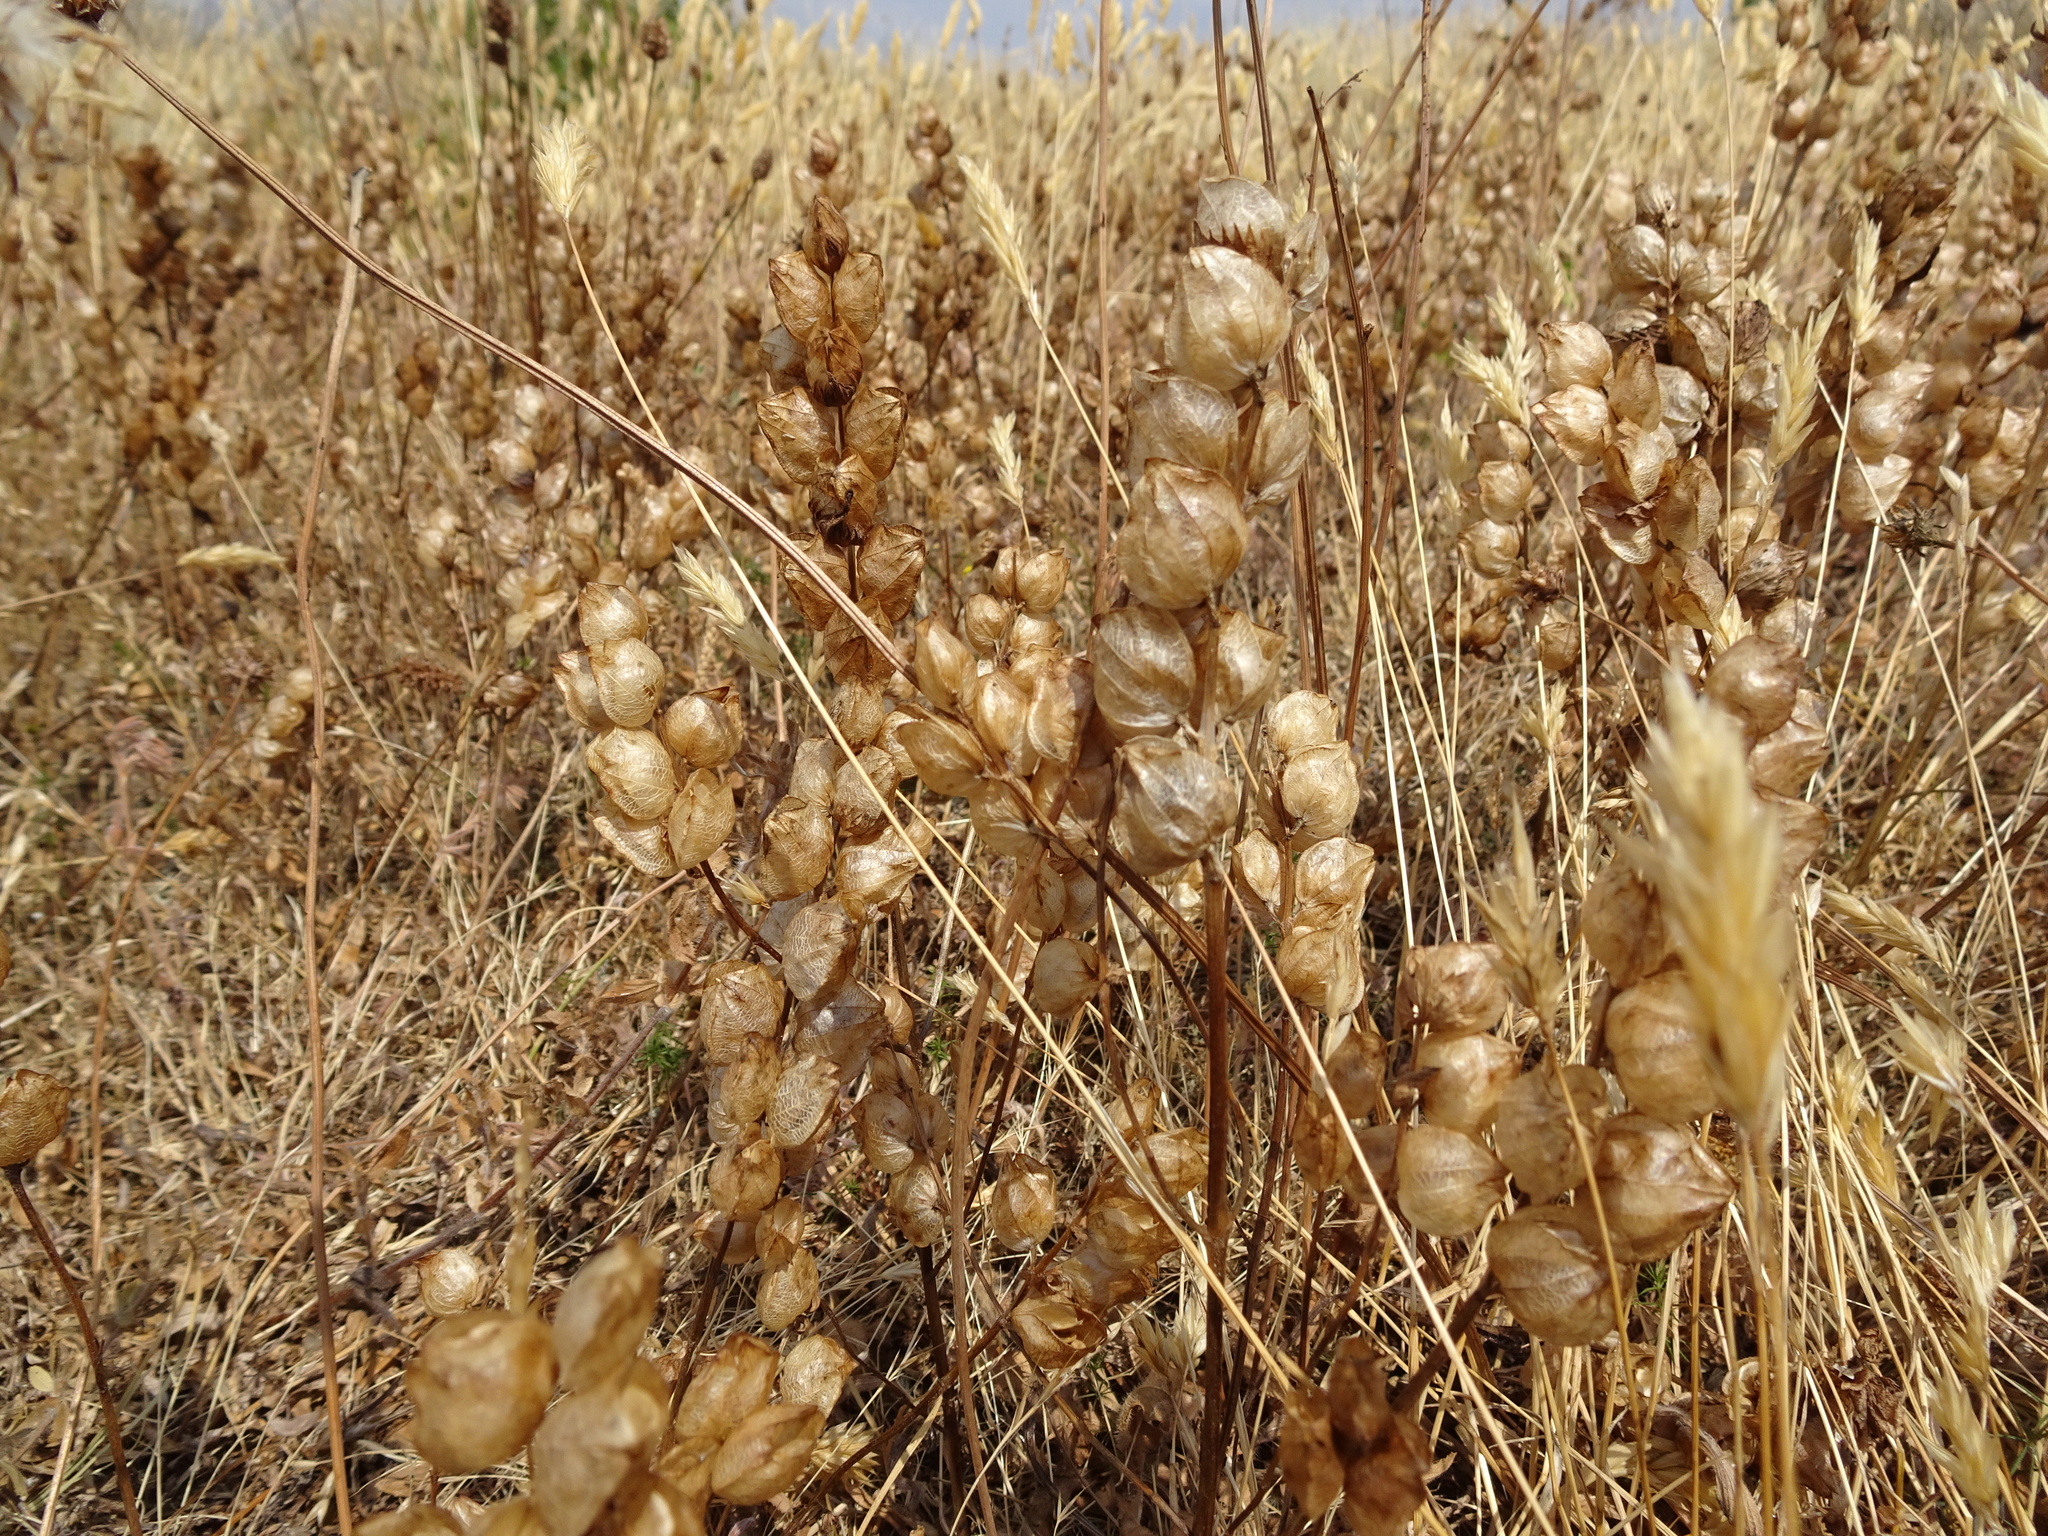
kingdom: Plantae
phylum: Tracheophyta
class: Magnoliopsida
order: Lamiales
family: Orobanchaceae
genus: Rhinanthus
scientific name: Rhinanthus minor
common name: Yellow-rattle
